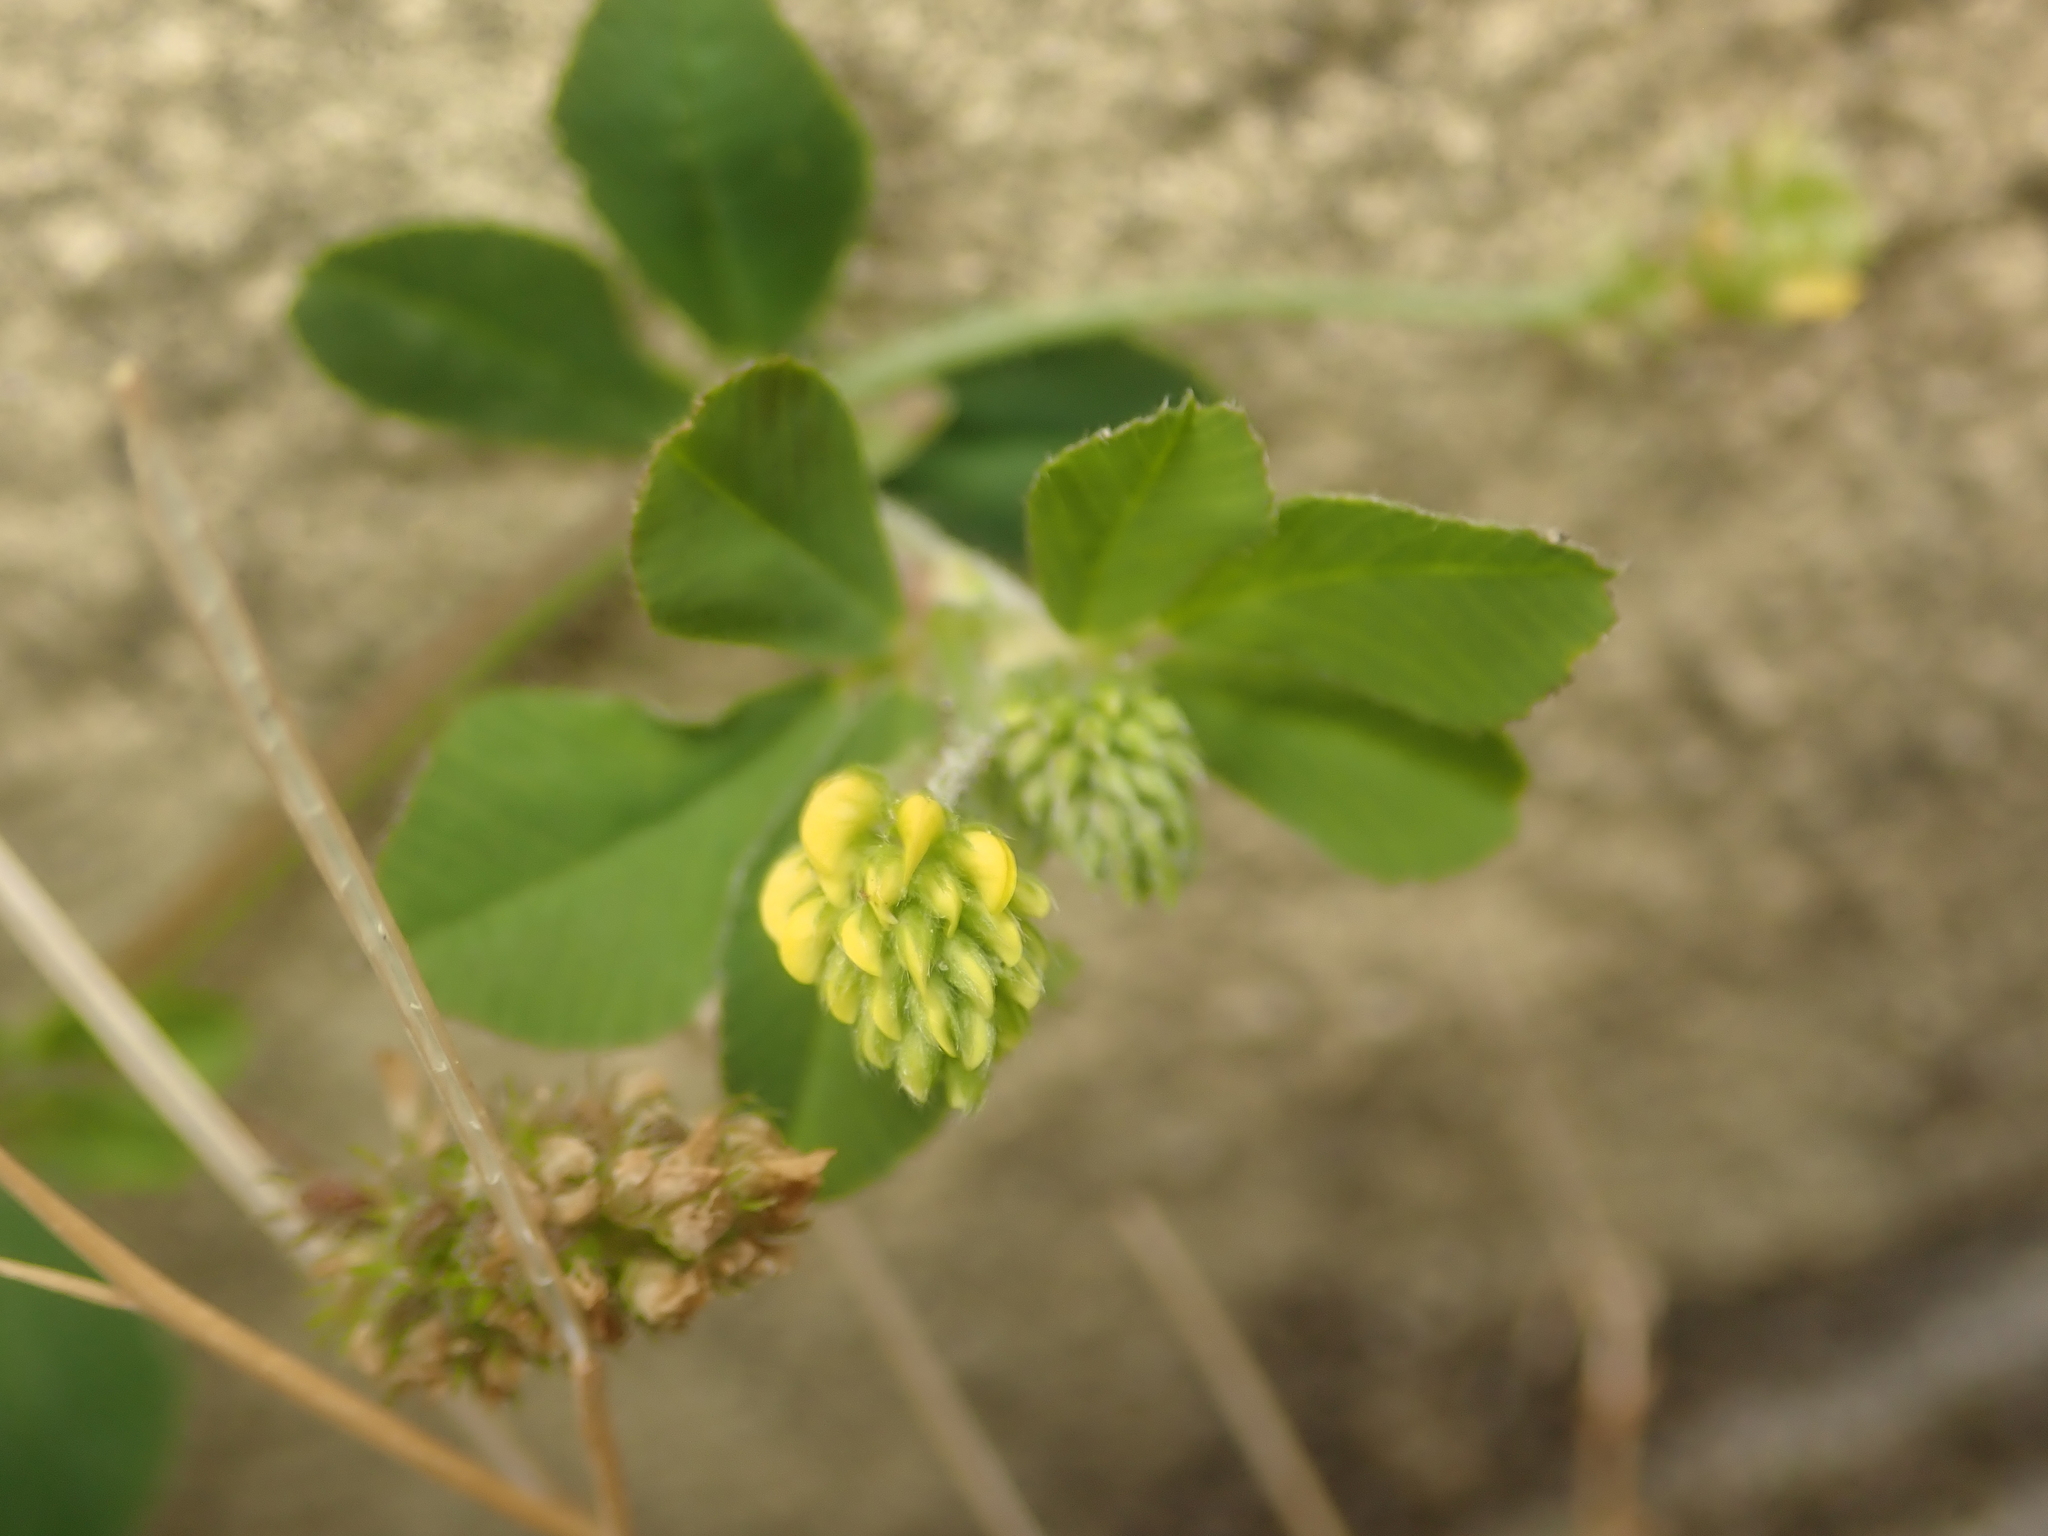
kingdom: Plantae
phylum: Tracheophyta
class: Magnoliopsida
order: Fabales
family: Fabaceae
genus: Medicago
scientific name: Medicago lupulina
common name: Black medick
